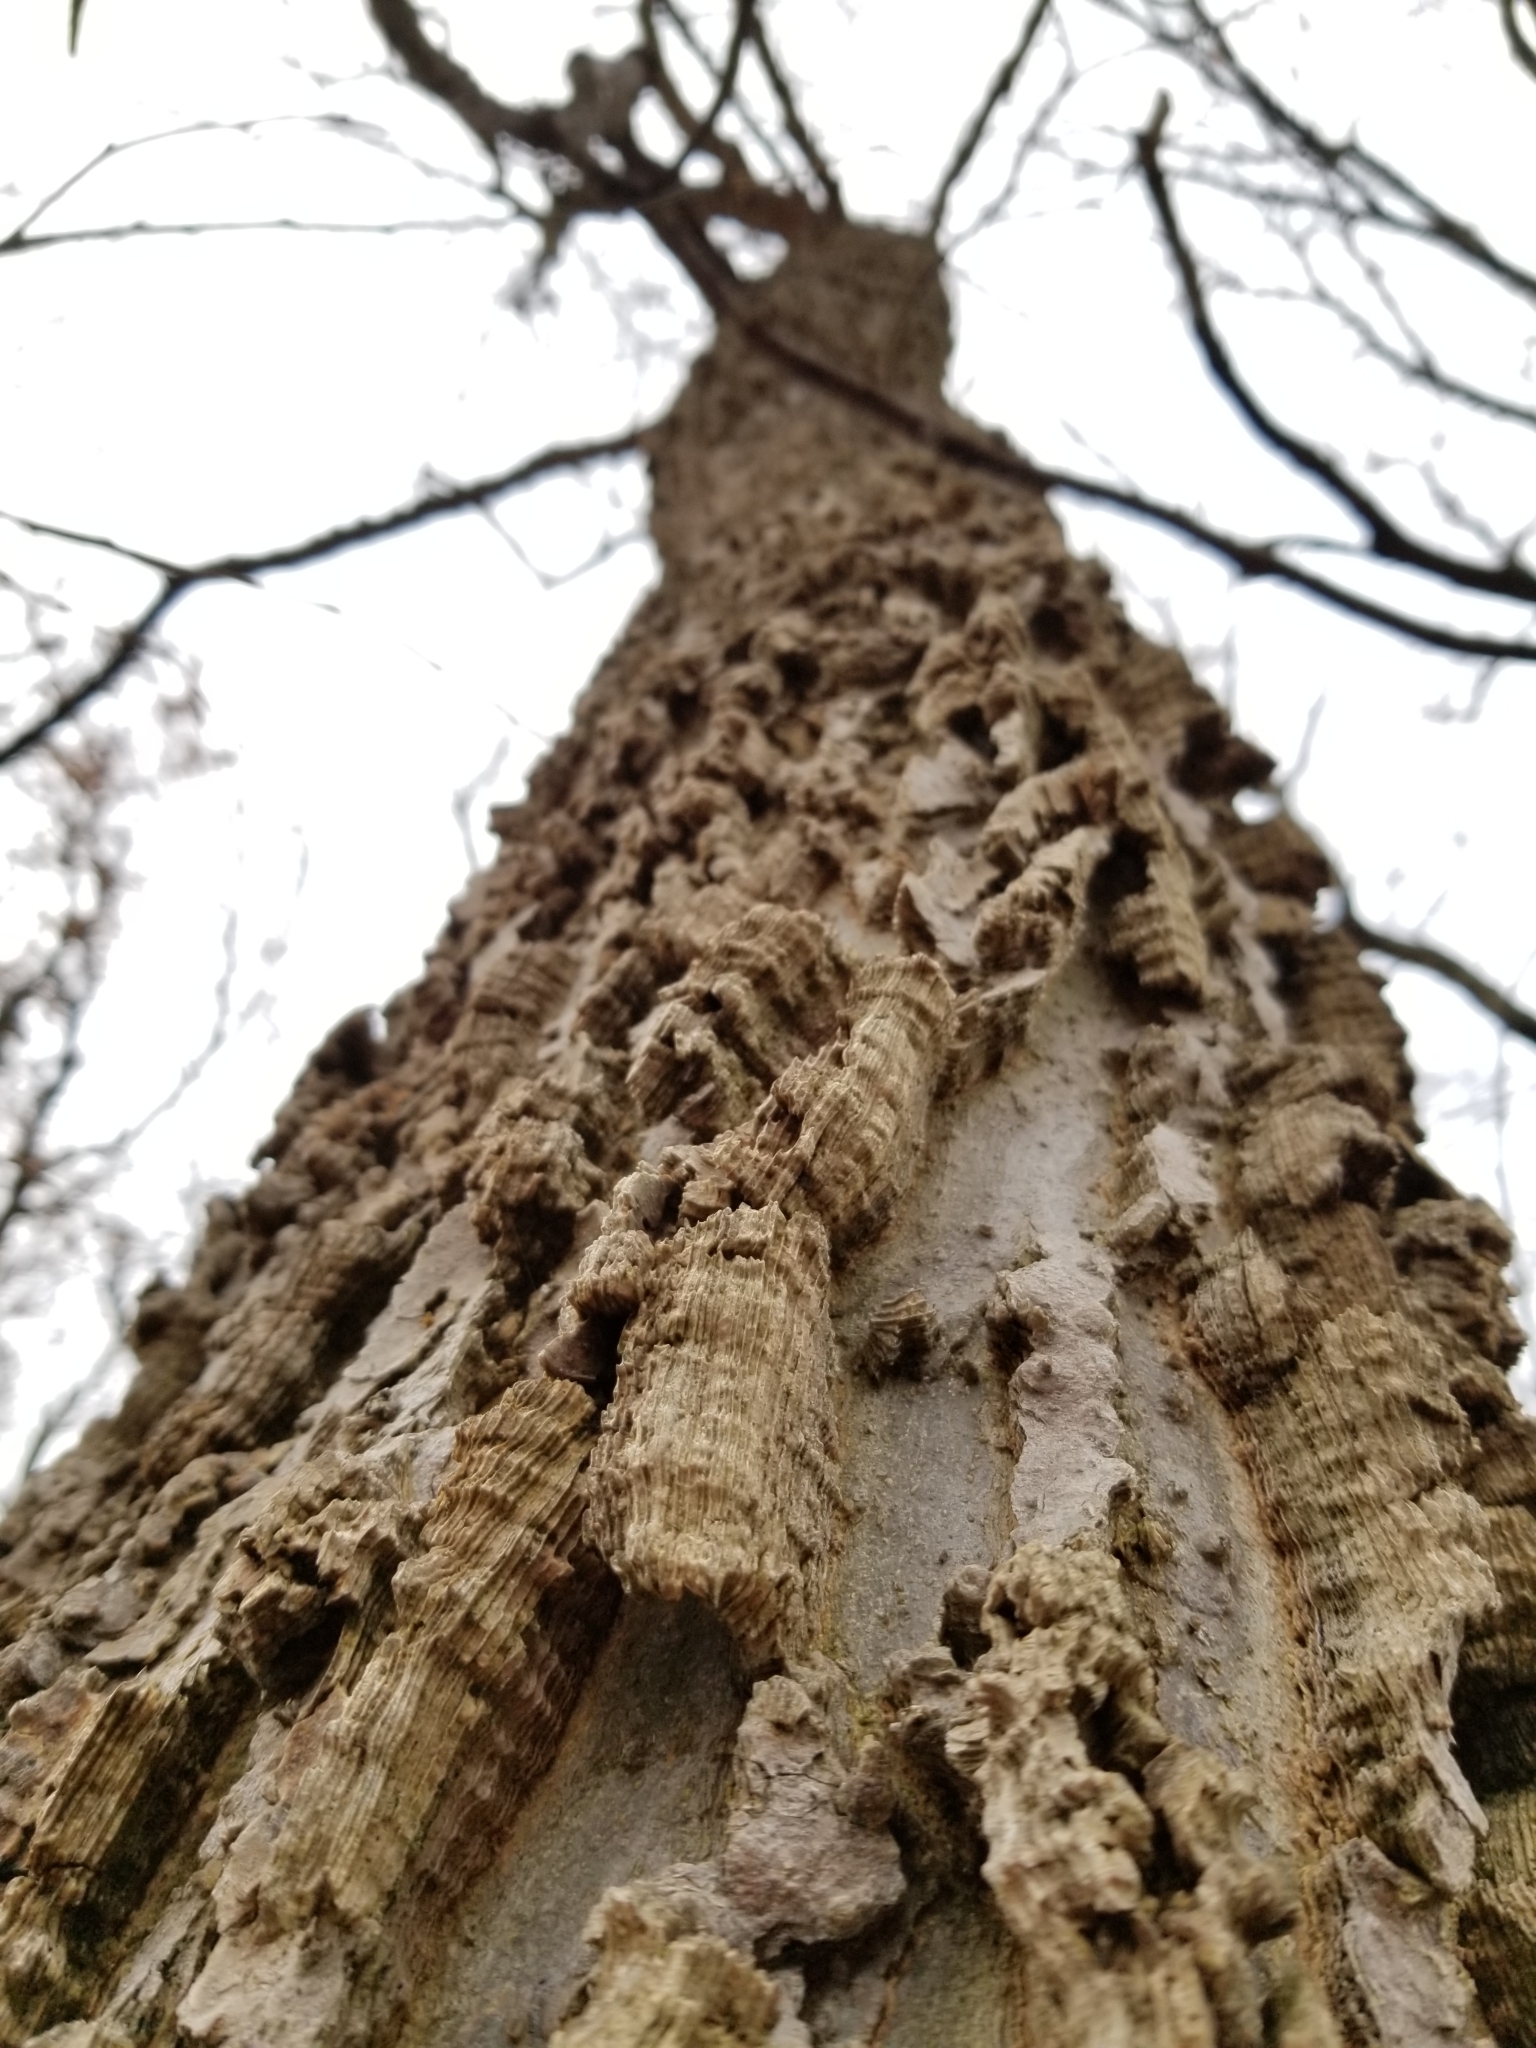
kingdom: Plantae
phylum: Tracheophyta
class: Magnoliopsida
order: Rosales
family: Cannabaceae
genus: Celtis
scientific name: Celtis occidentalis
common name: Common hackberry
